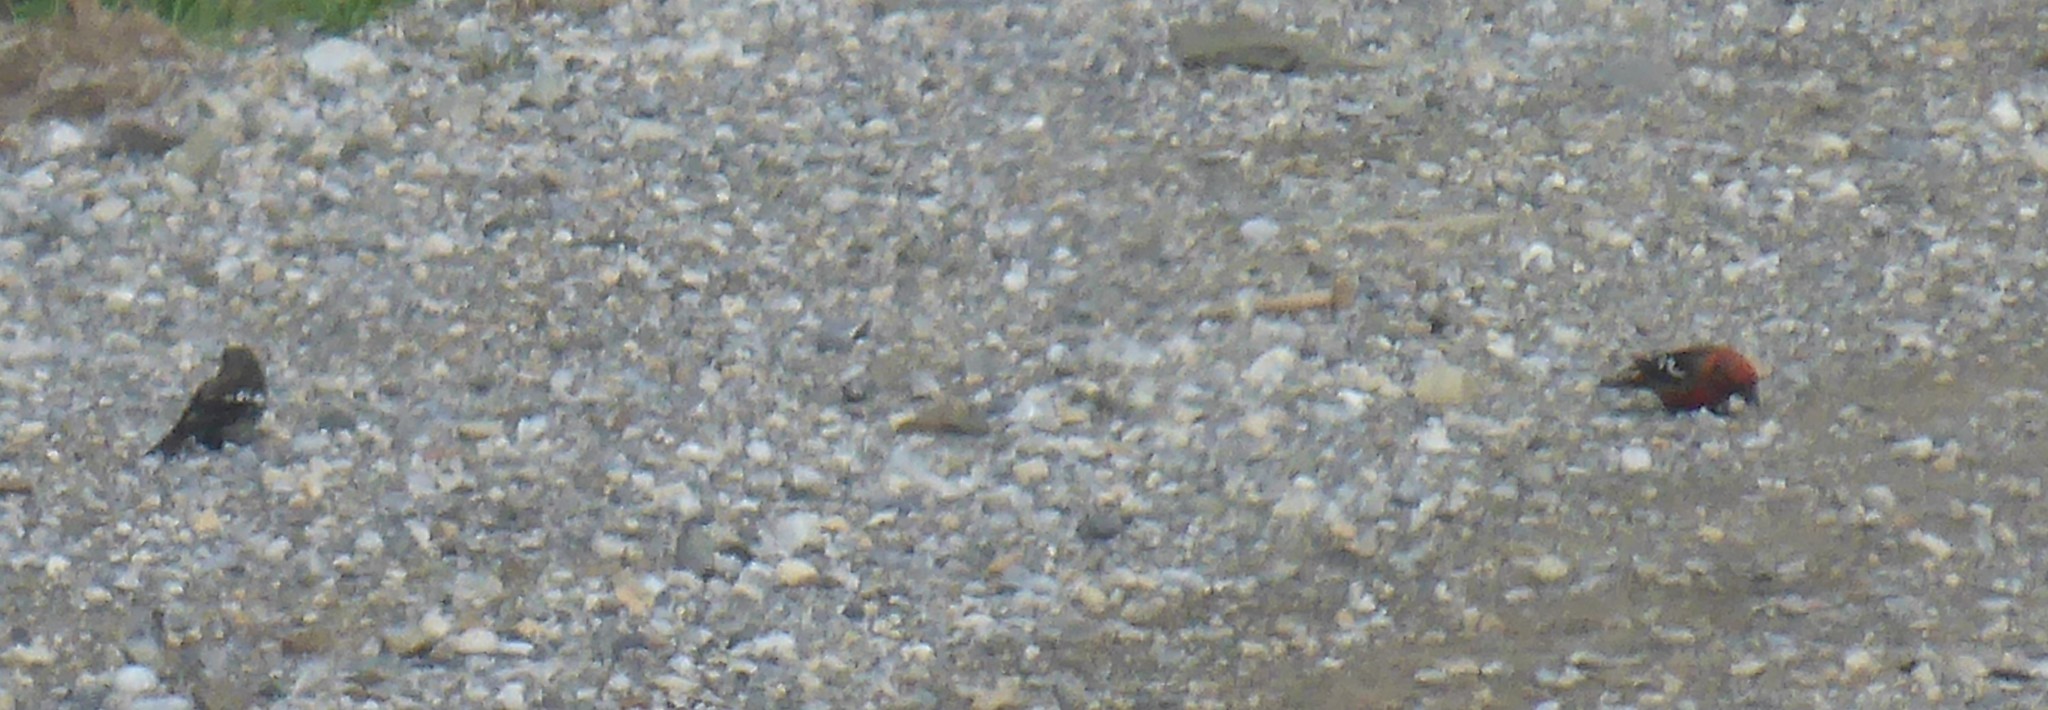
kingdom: Animalia
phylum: Chordata
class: Aves
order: Passeriformes
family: Fringillidae
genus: Loxia
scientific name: Loxia leucoptera
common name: Two-barred crossbill
